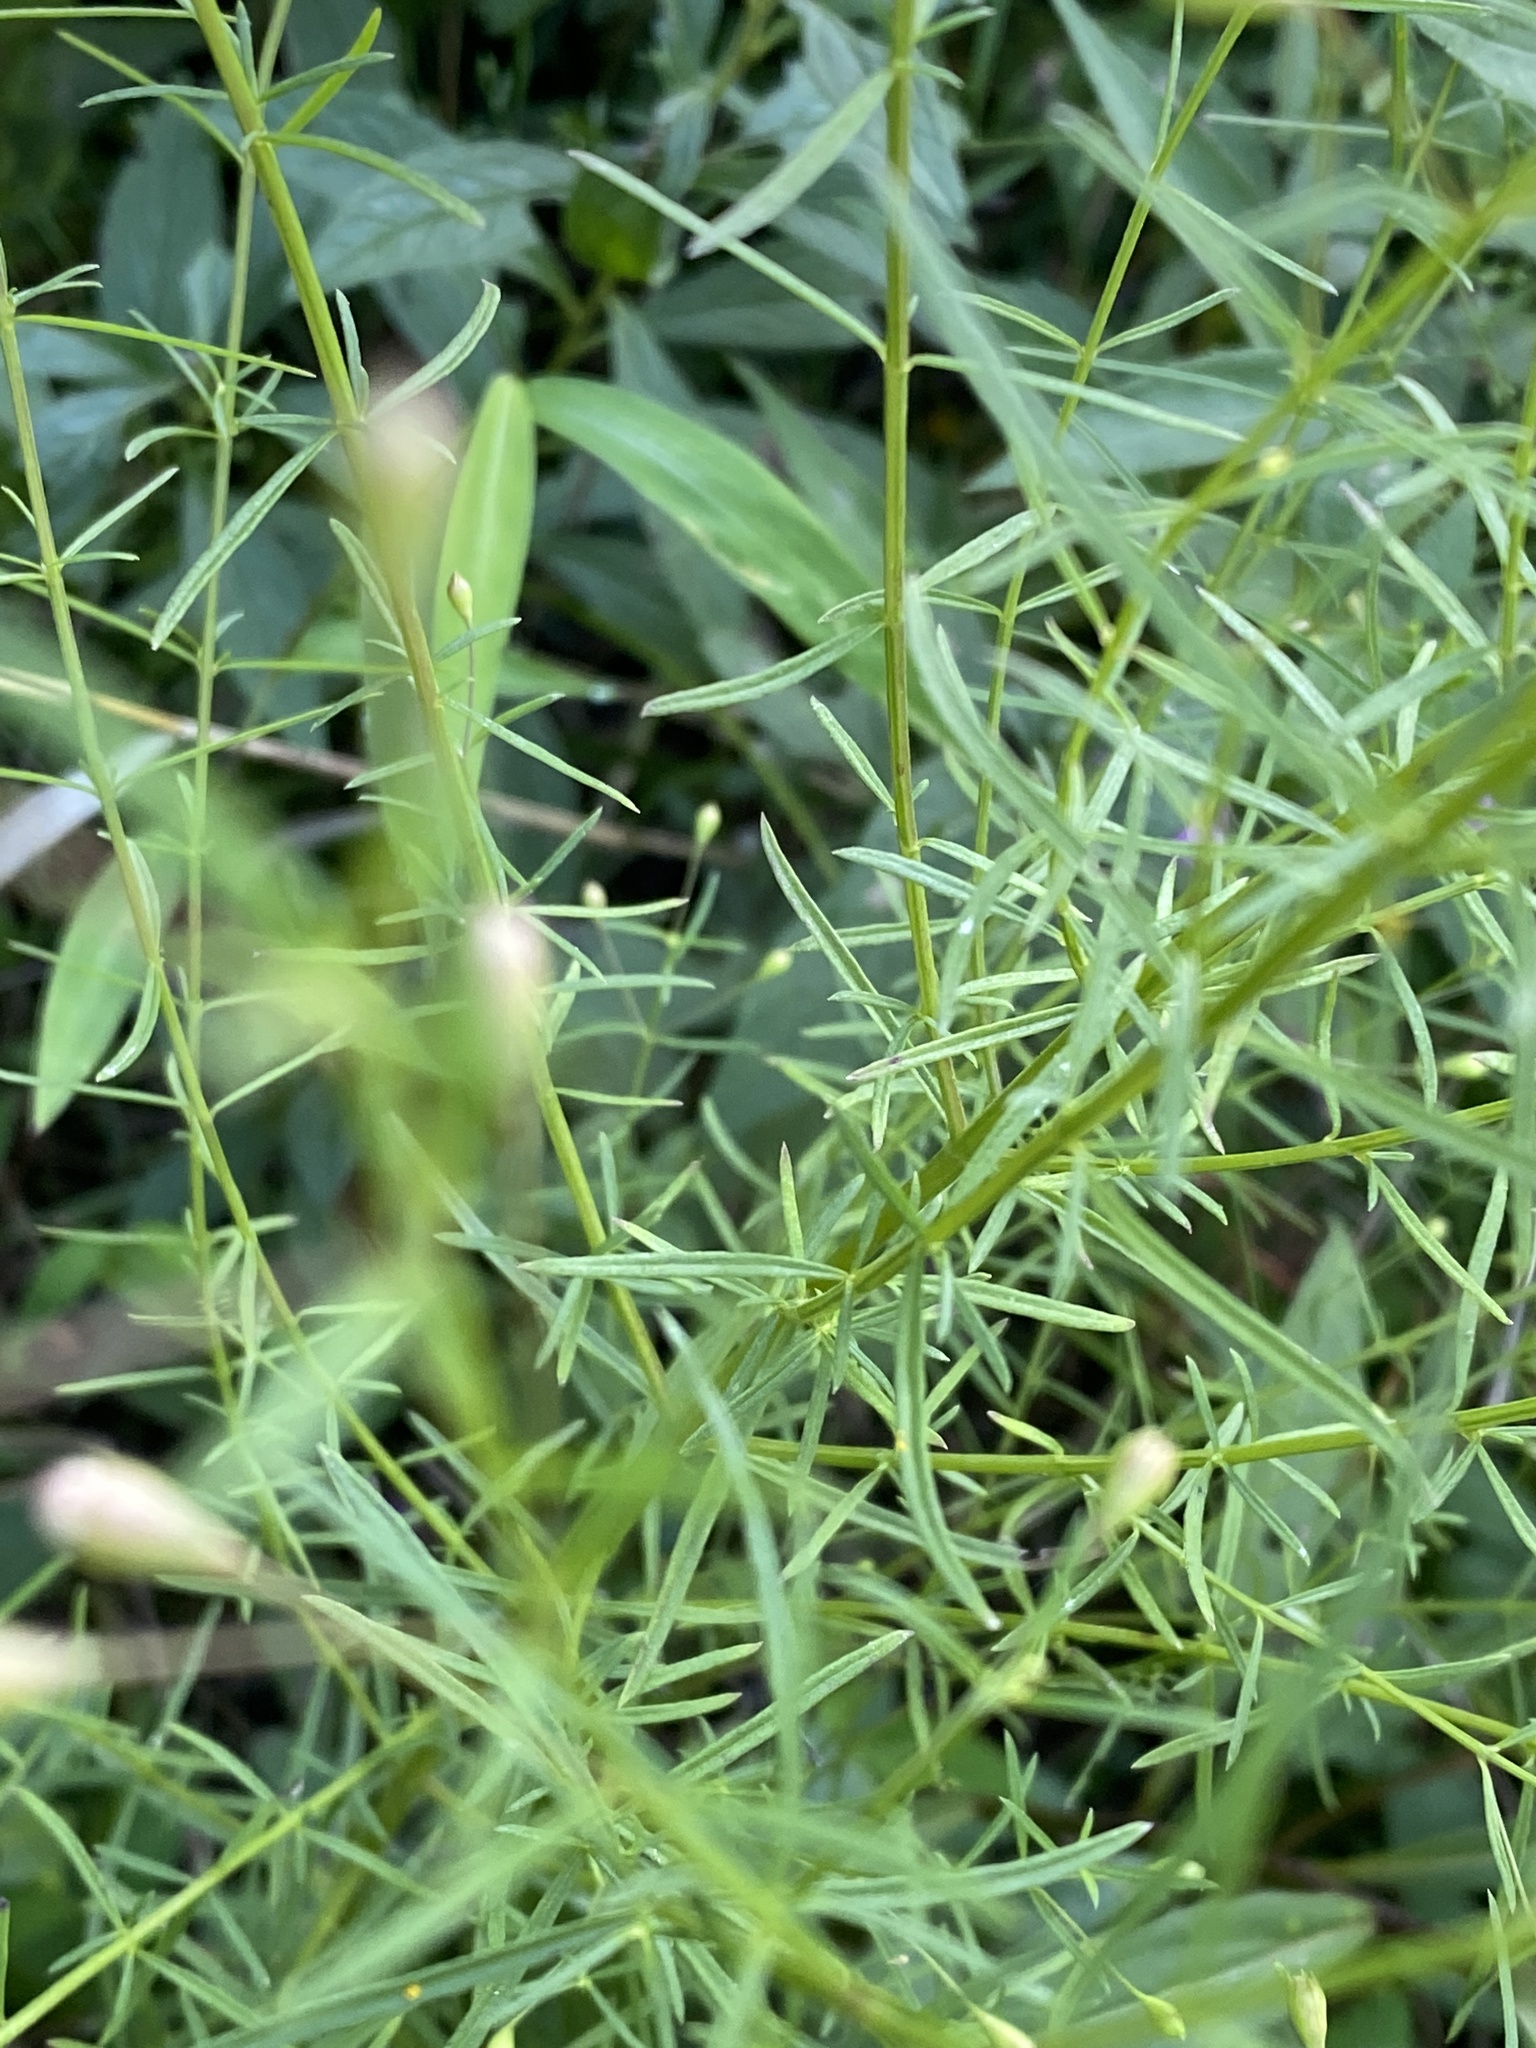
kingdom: Plantae
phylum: Tracheophyta
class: Magnoliopsida
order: Lamiales
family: Orobanchaceae
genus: Agalinis
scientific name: Agalinis setacea
